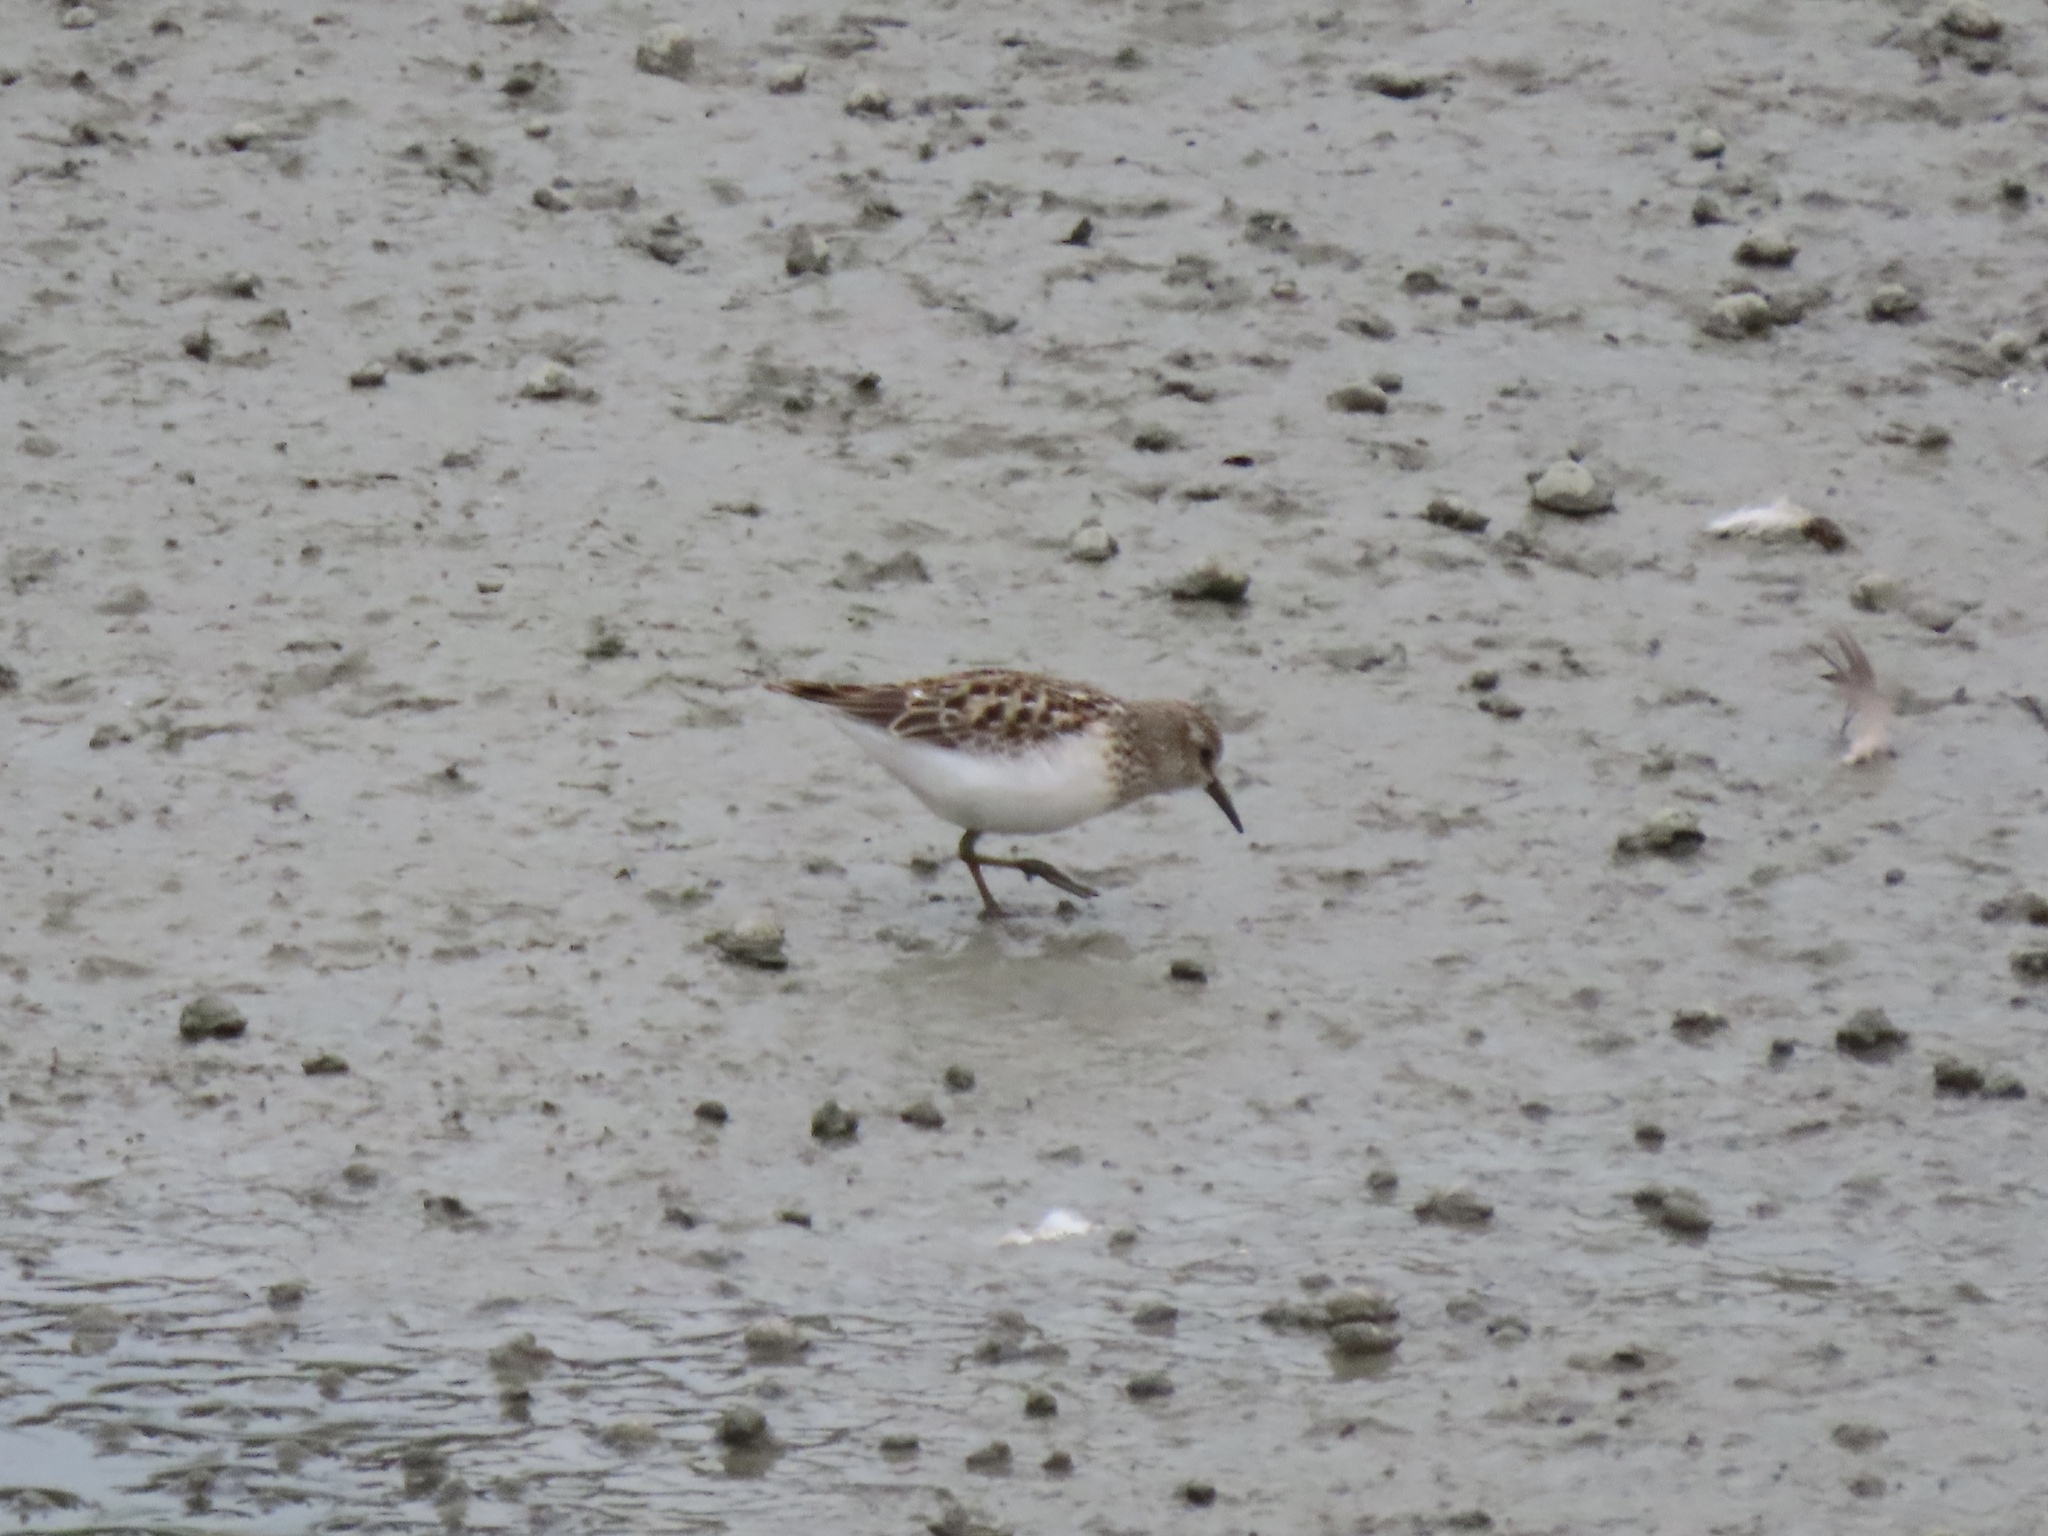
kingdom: Animalia
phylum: Chordata
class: Aves
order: Charadriiformes
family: Scolopacidae
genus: Calidris
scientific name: Calidris minutilla
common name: Least sandpiper
